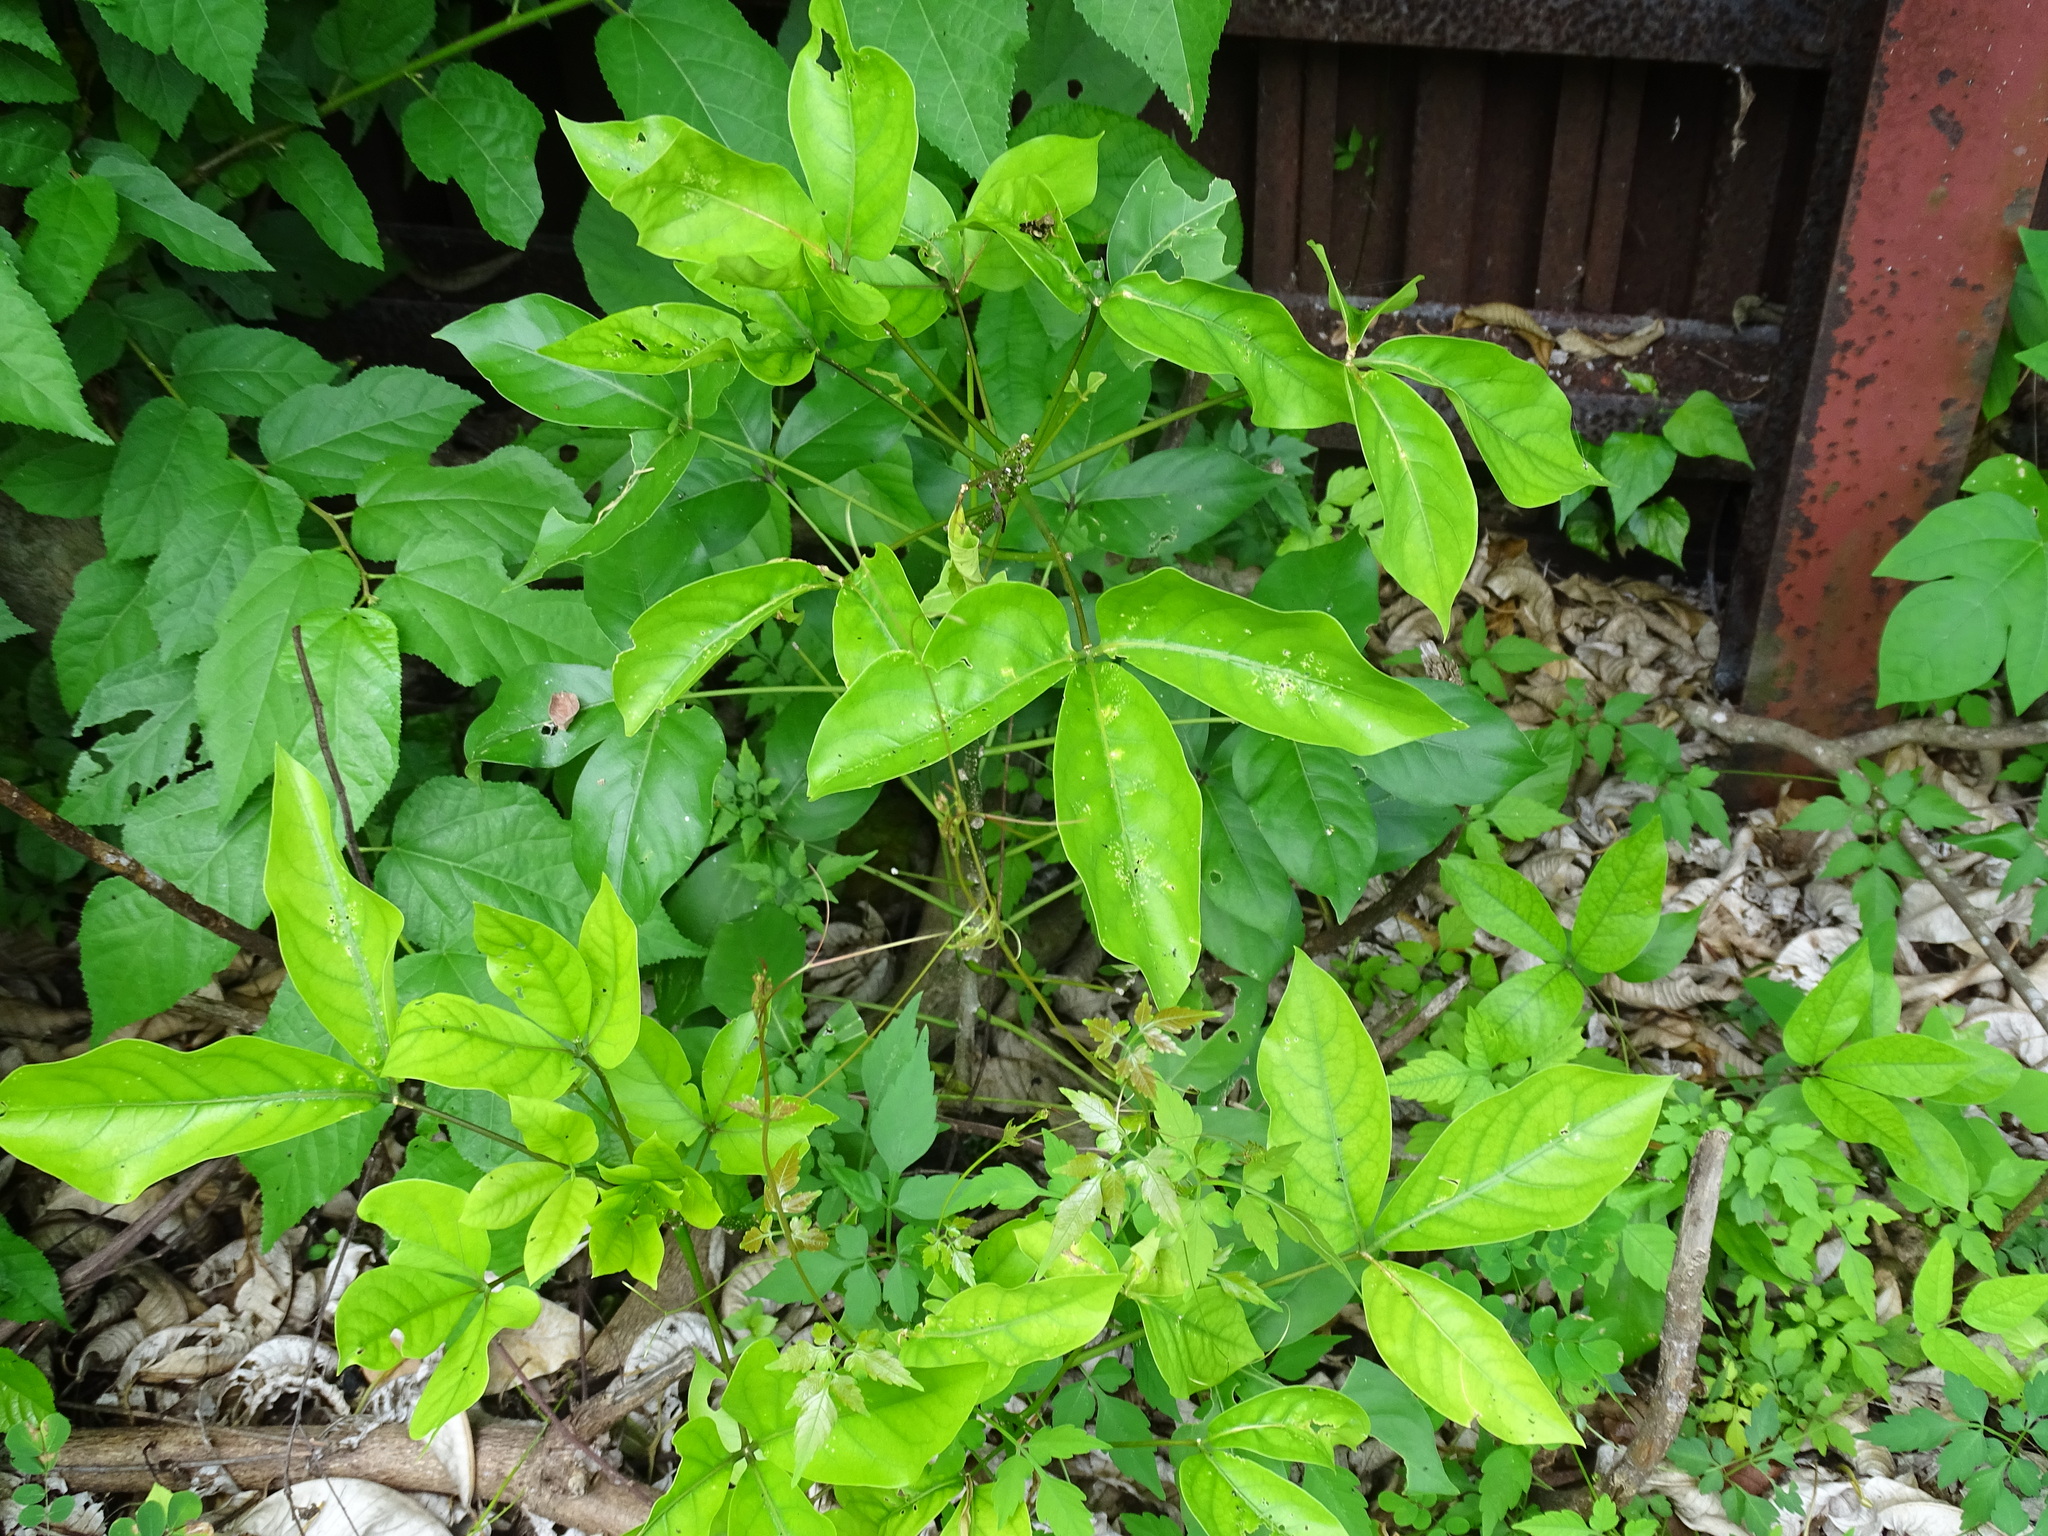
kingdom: Plantae
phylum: Tracheophyta
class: Magnoliopsida
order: Brassicales
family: Capparaceae
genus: Crateva
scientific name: Crateva tapia
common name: Garlic-pear
